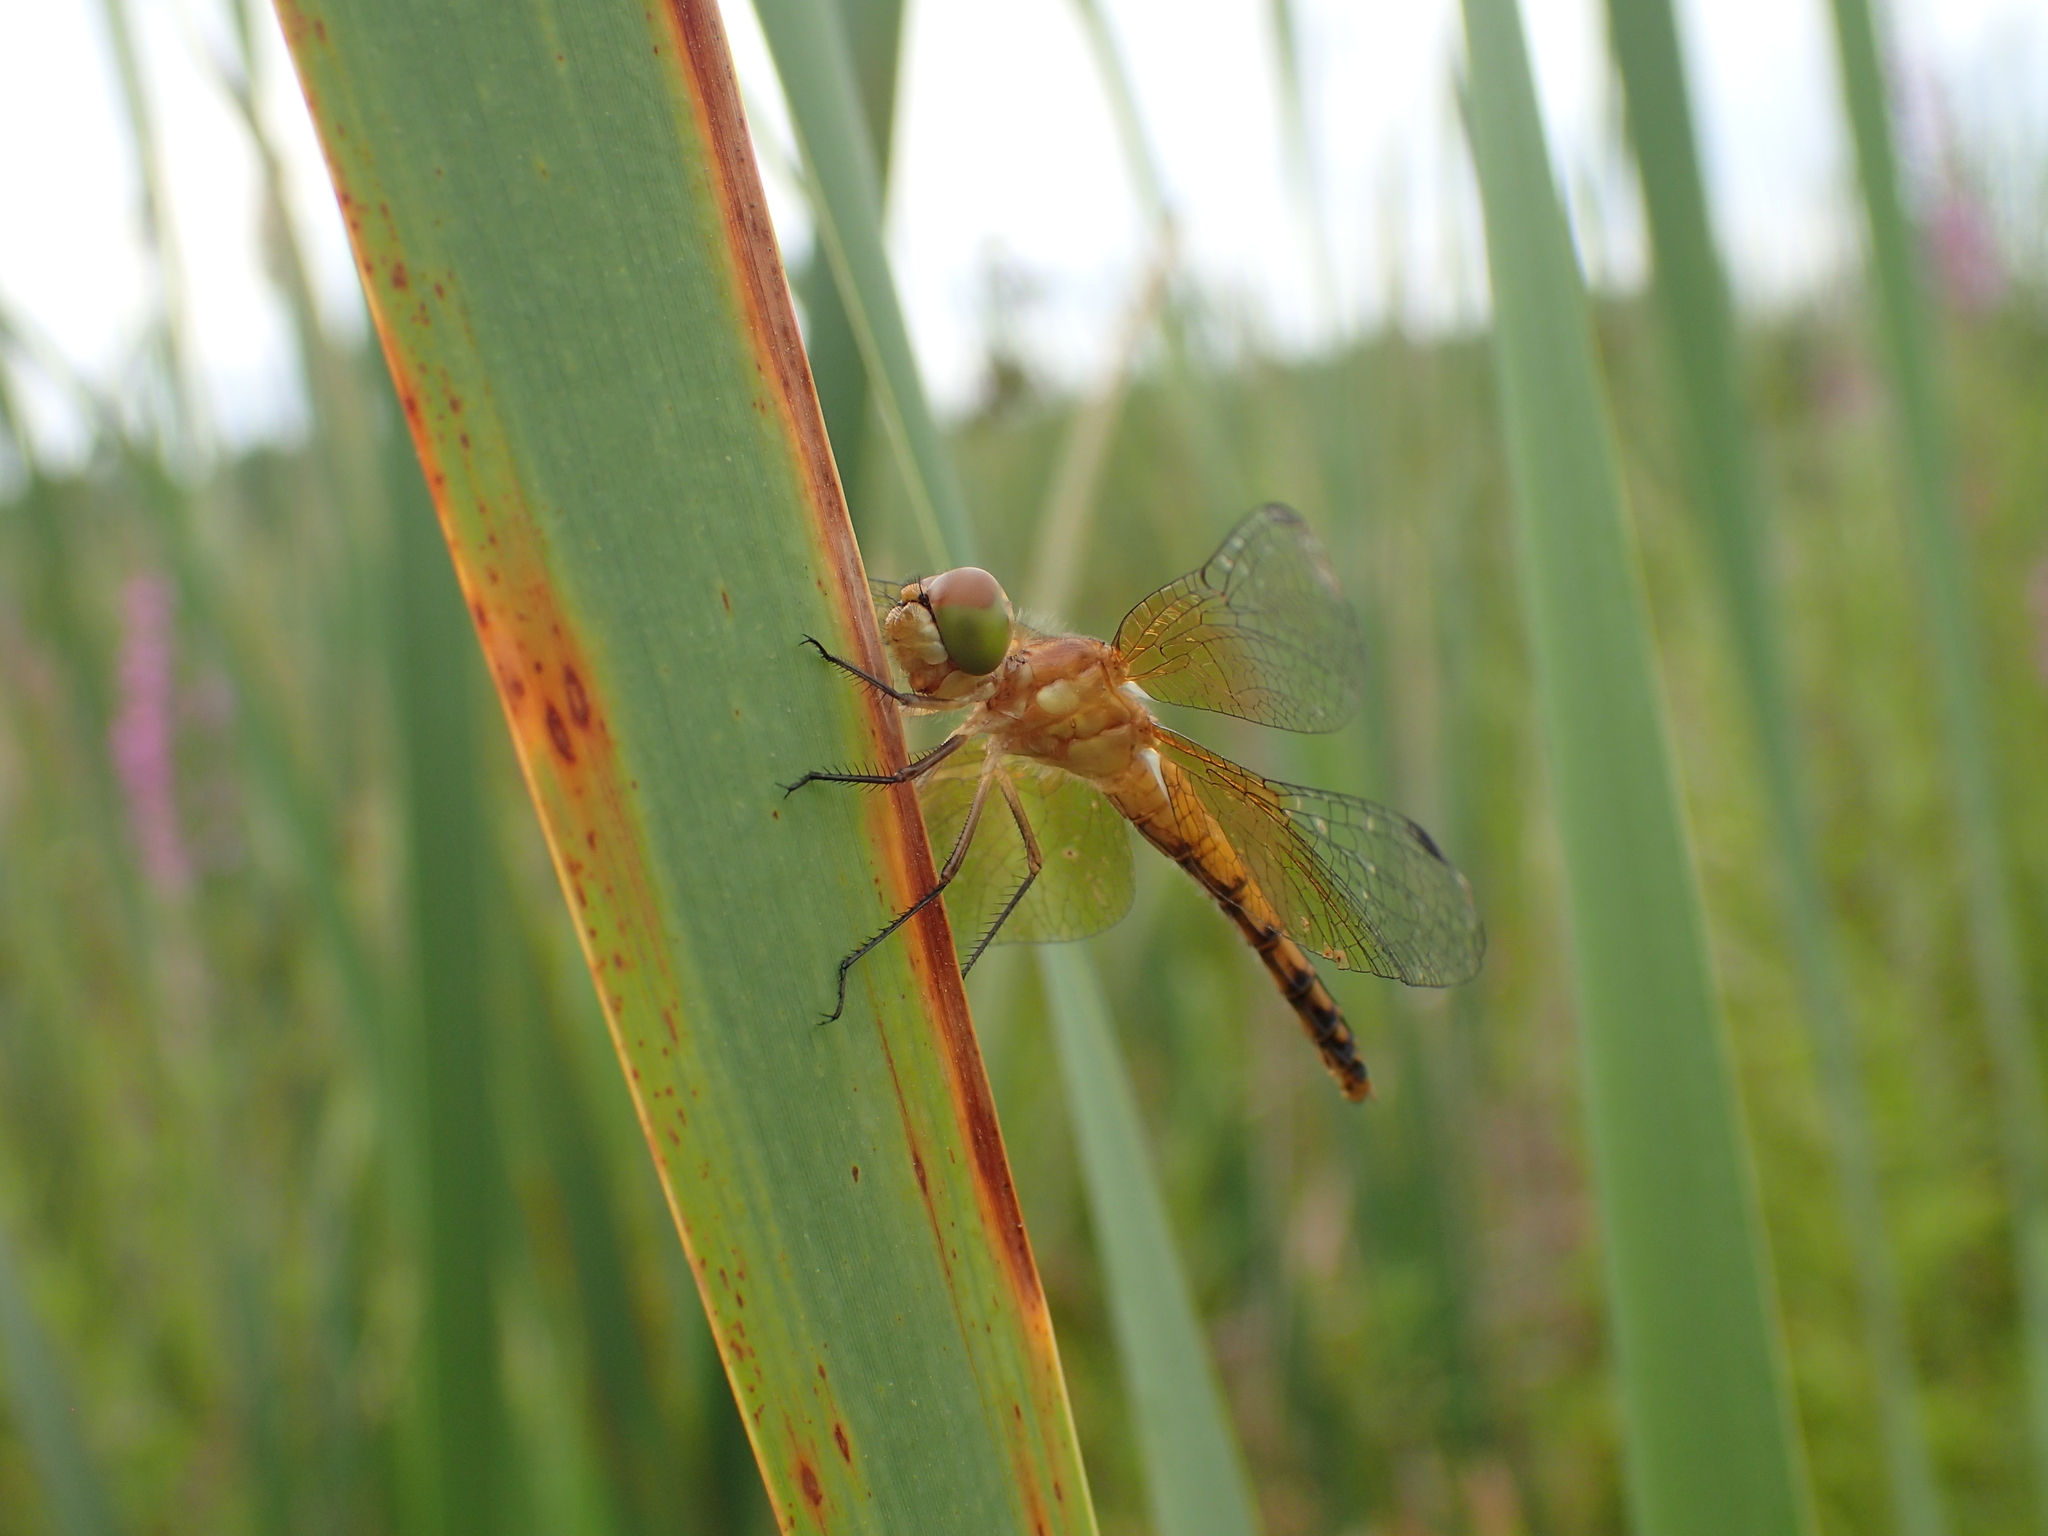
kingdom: Animalia
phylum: Arthropoda
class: Insecta
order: Odonata
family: Libellulidae
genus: Sympetrum
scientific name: Sympetrum semicinctum
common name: Band-winged meadowhawk
